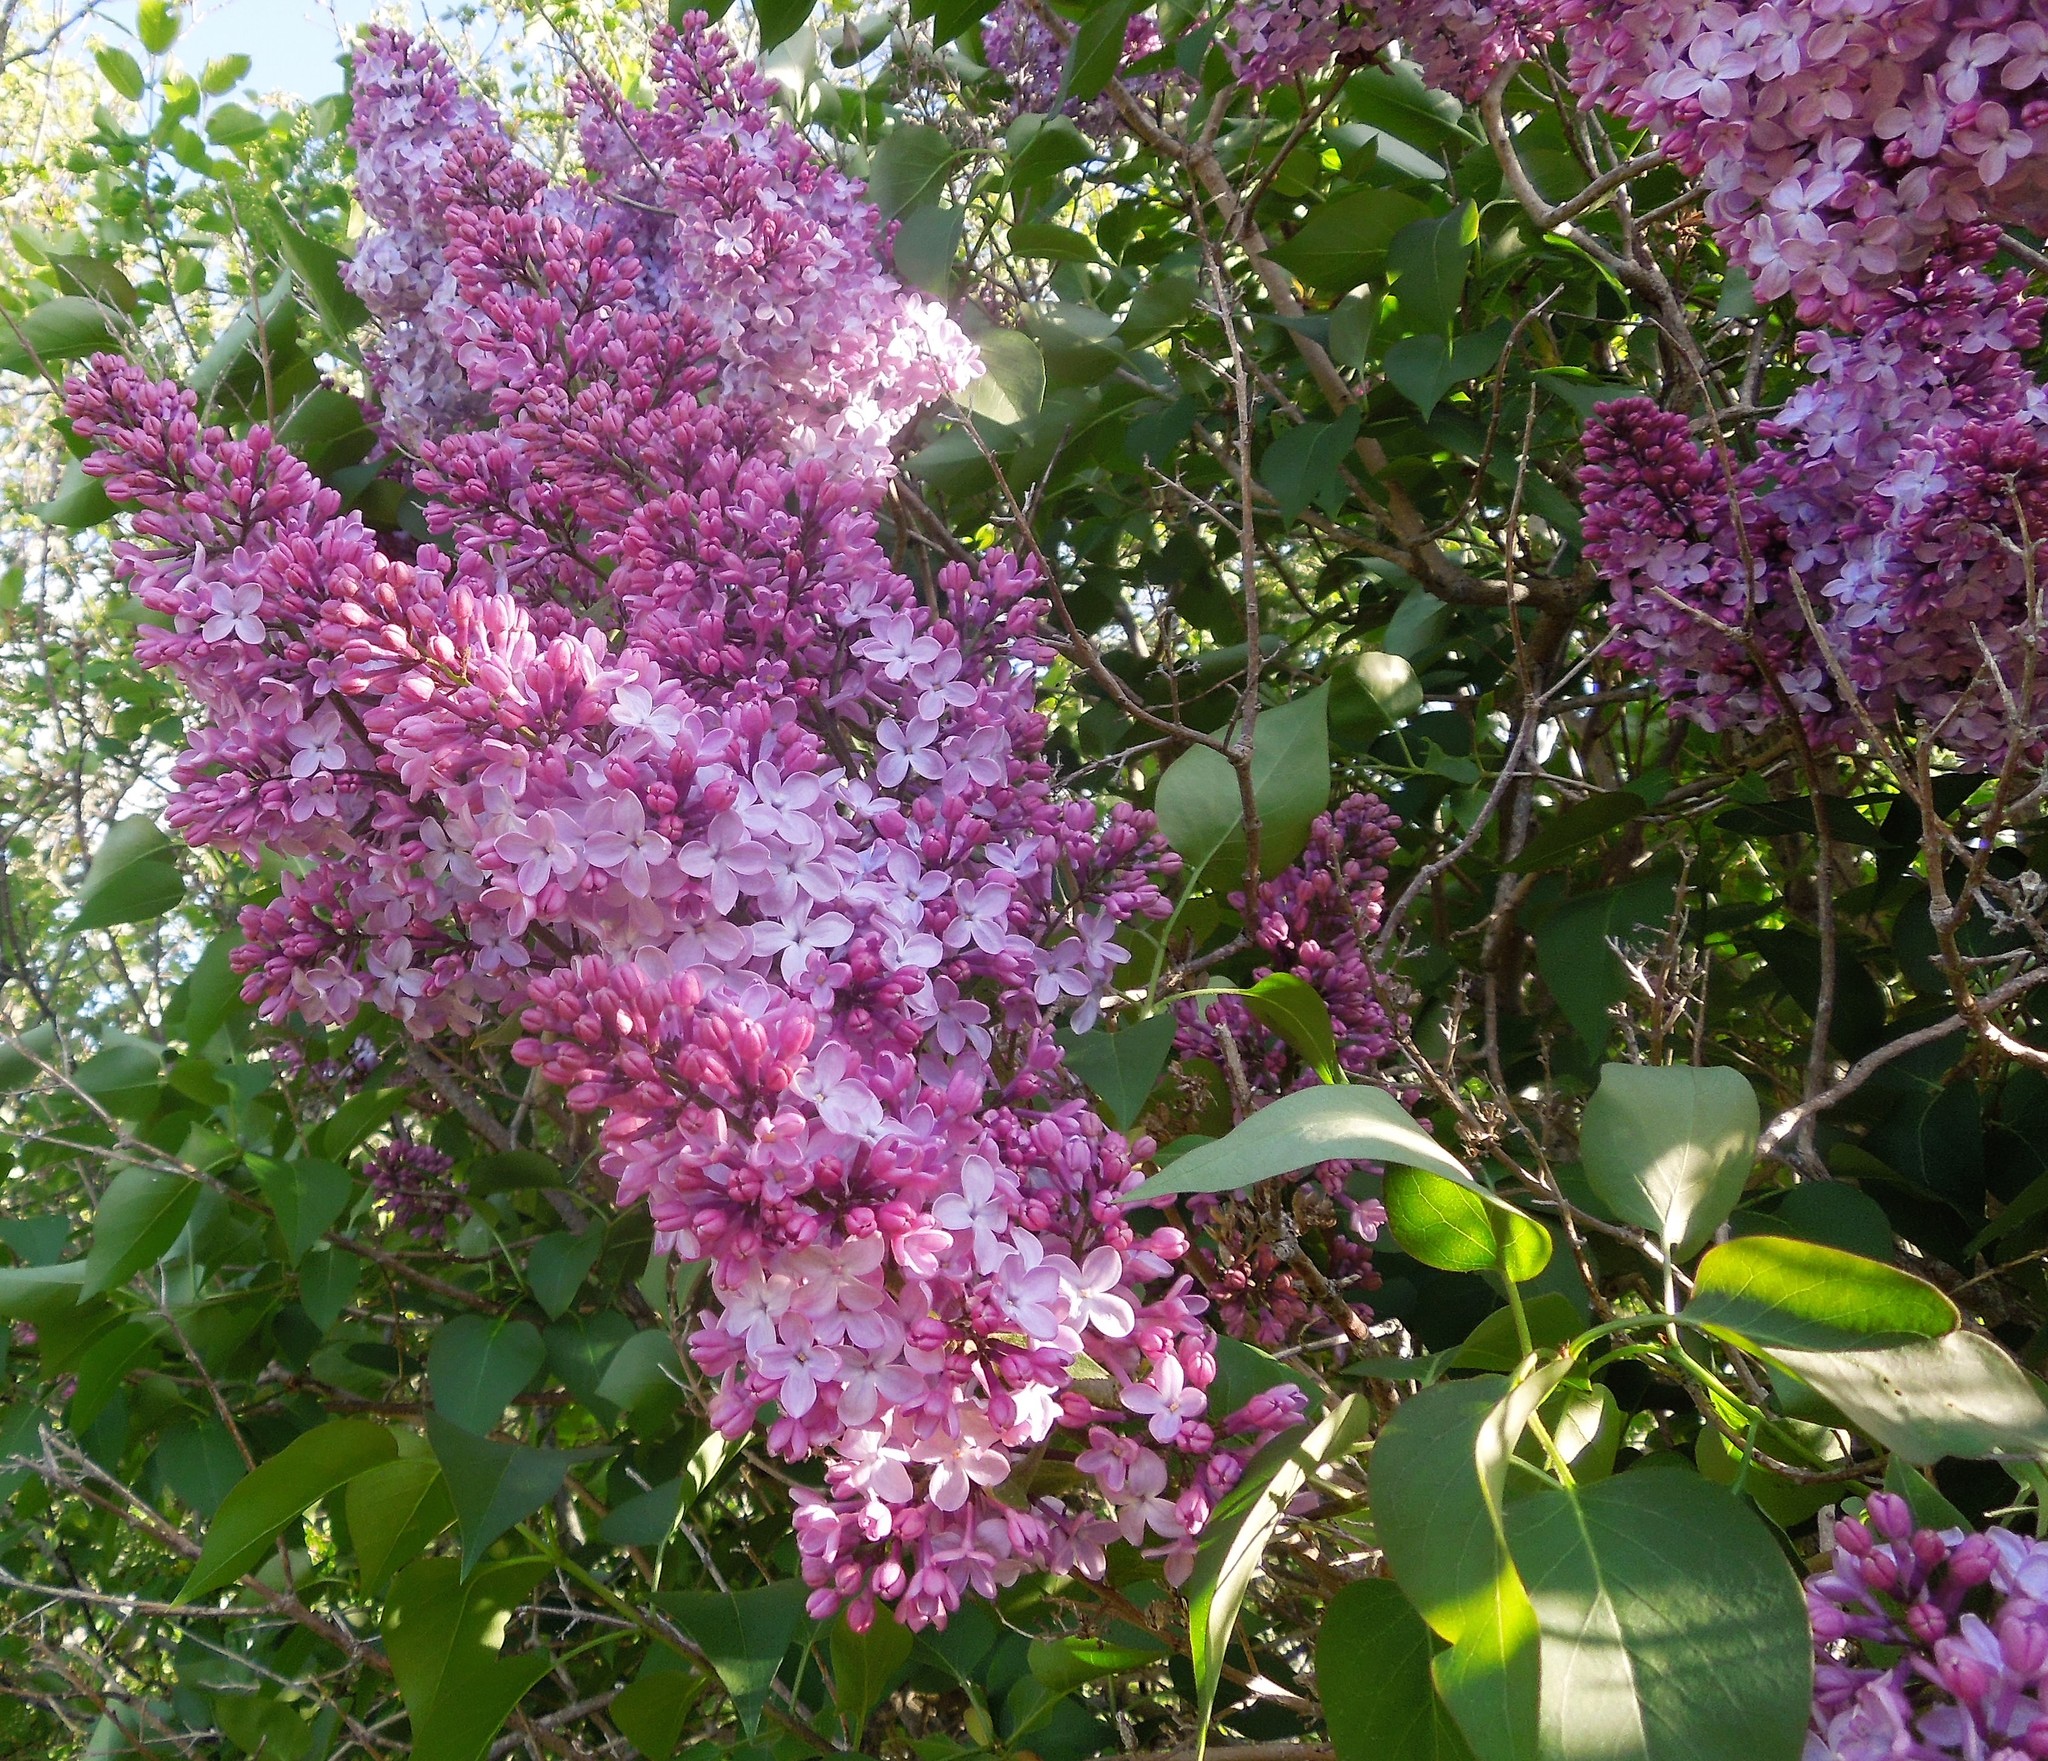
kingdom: Plantae
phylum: Tracheophyta
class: Magnoliopsida
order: Lamiales
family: Oleaceae
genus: Syringa
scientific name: Syringa vulgaris
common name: Common lilac
